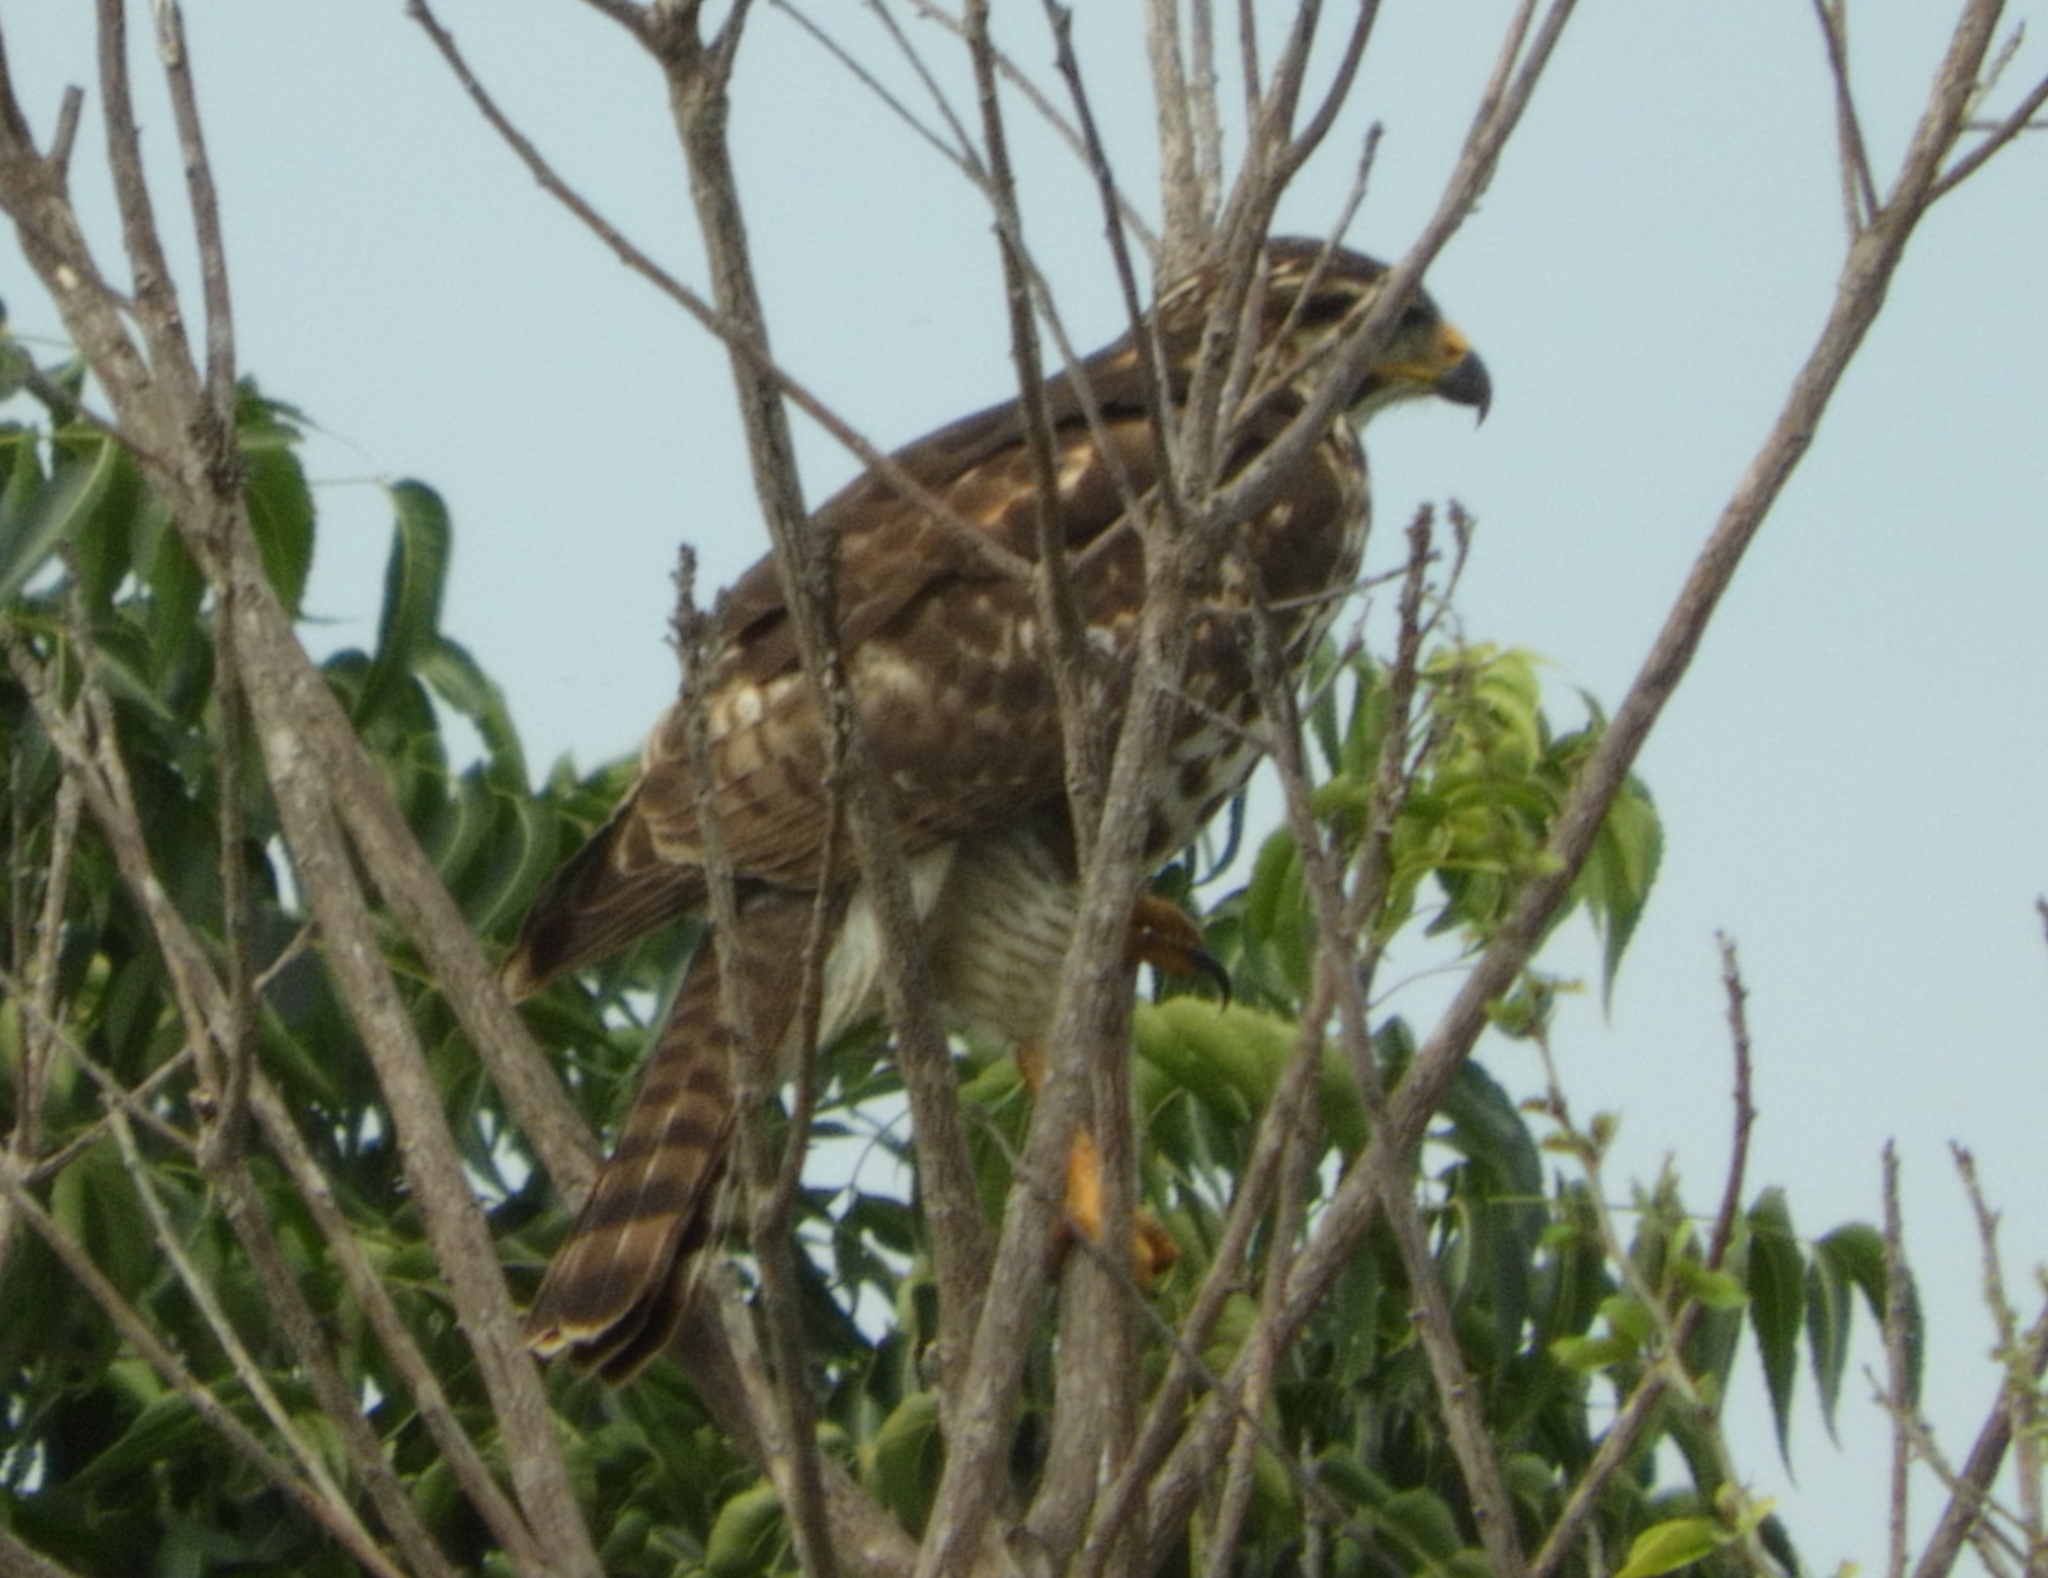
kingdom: Animalia
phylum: Chordata
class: Aves
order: Accipitriformes
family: Accipitridae
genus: Buteo
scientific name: Buteo nitidus
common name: Grey-lined hawk
